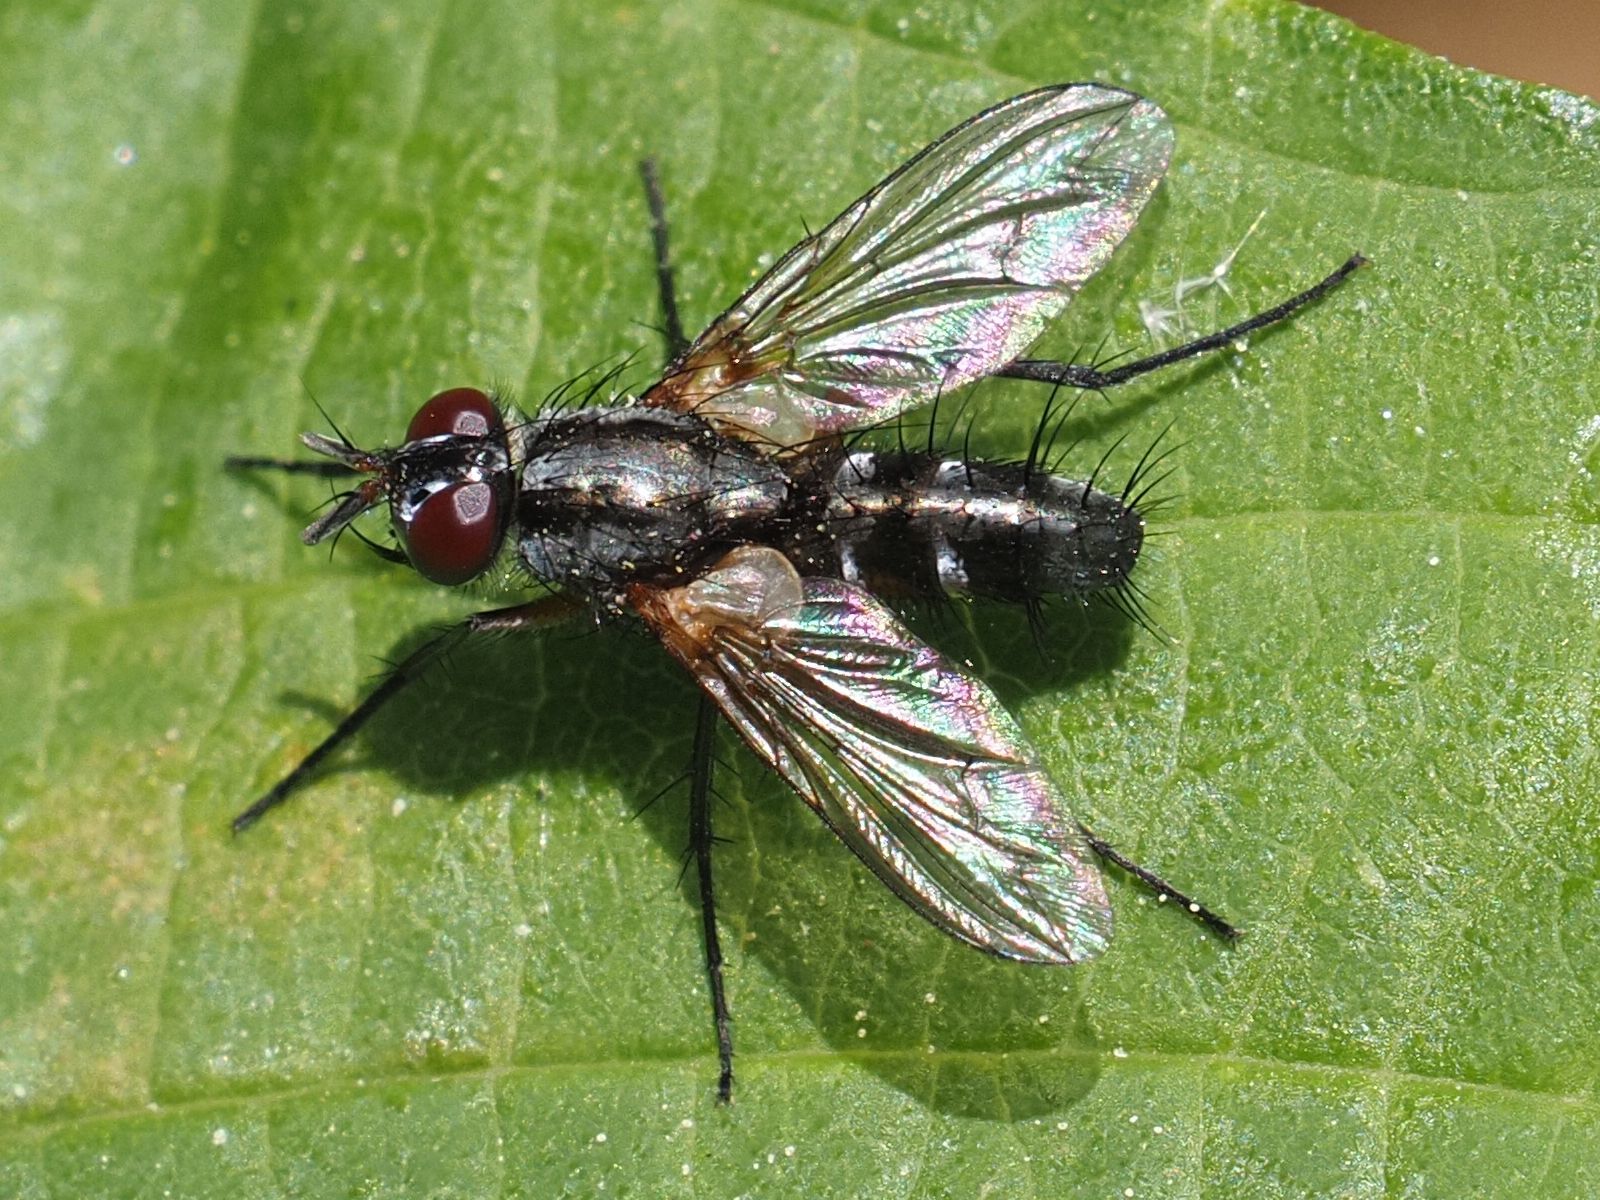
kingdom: Animalia
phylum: Arthropoda
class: Insecta
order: Diptera
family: Tachinidae
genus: Mintho
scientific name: Mintho rufiventris
